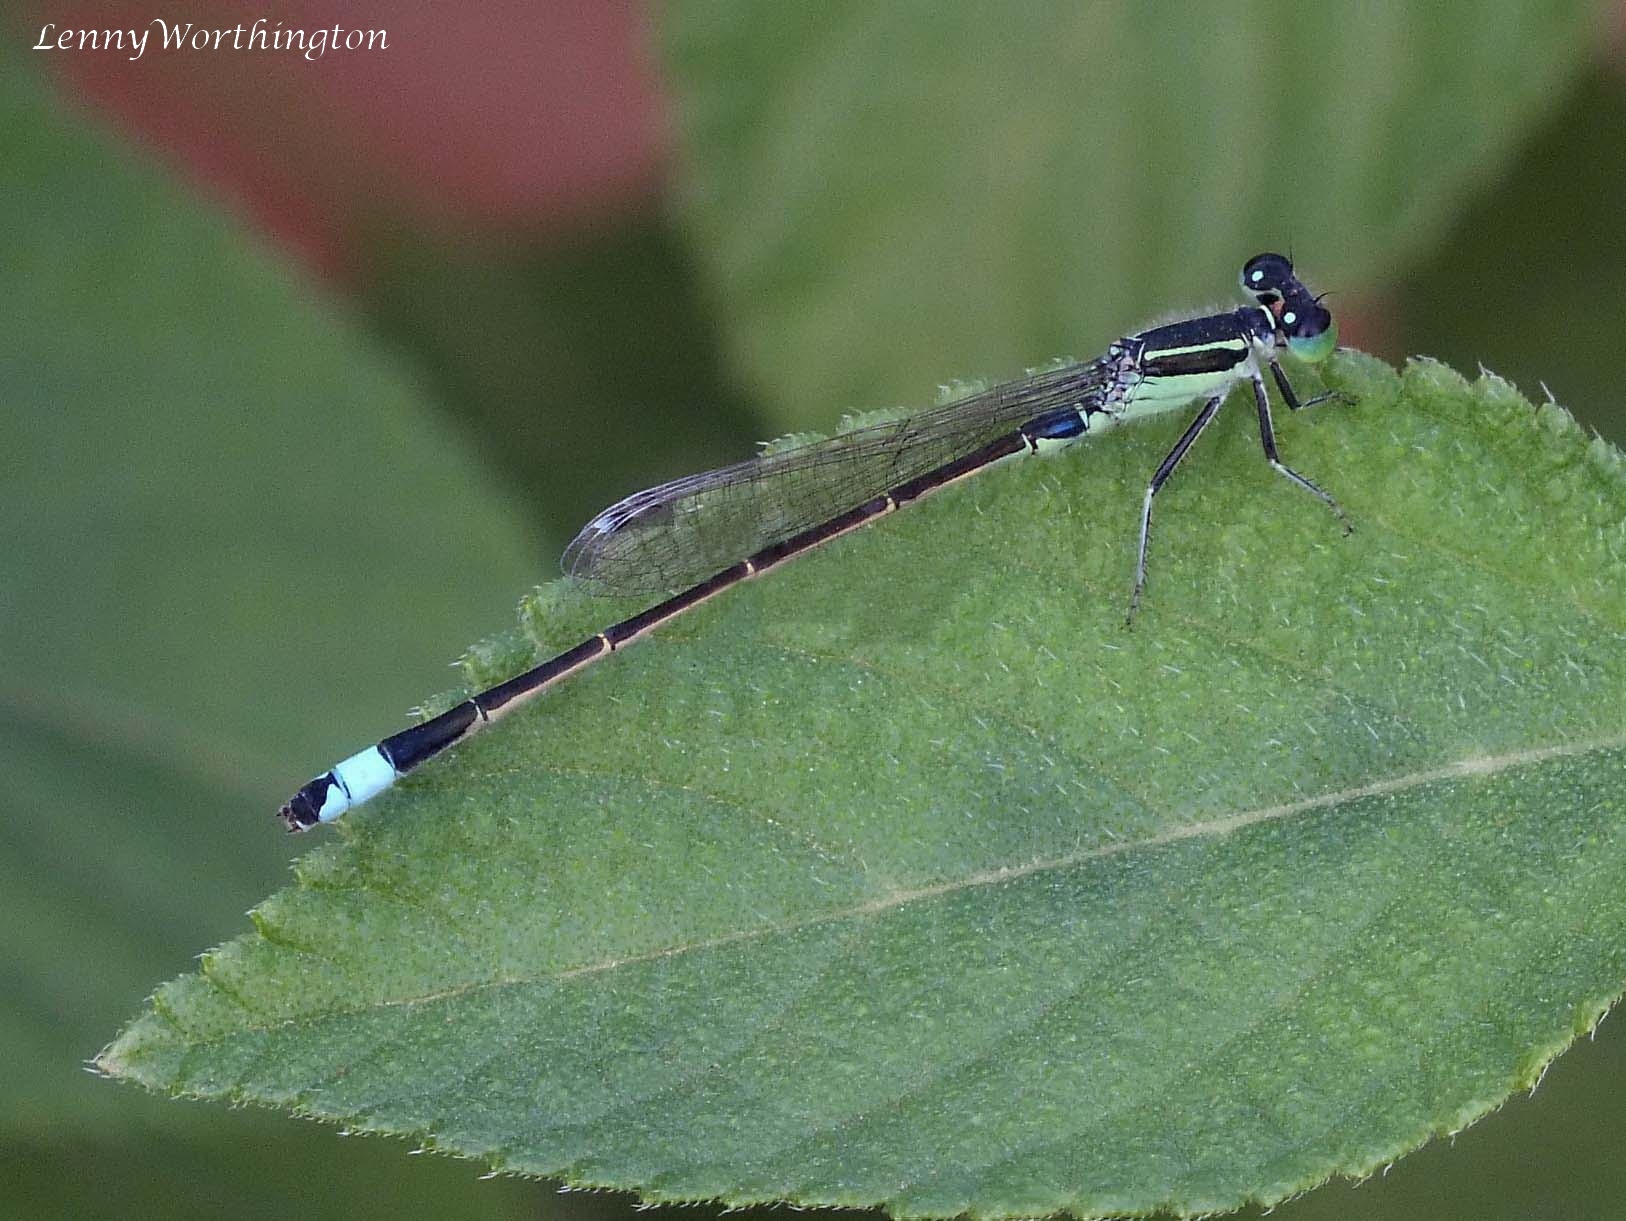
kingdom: Animalia
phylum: Arthropoda
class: Insecta
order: Odonata
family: Coenagrionidae
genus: Ischnura
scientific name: Ischnura senegalensis
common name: Tropical bluetail
